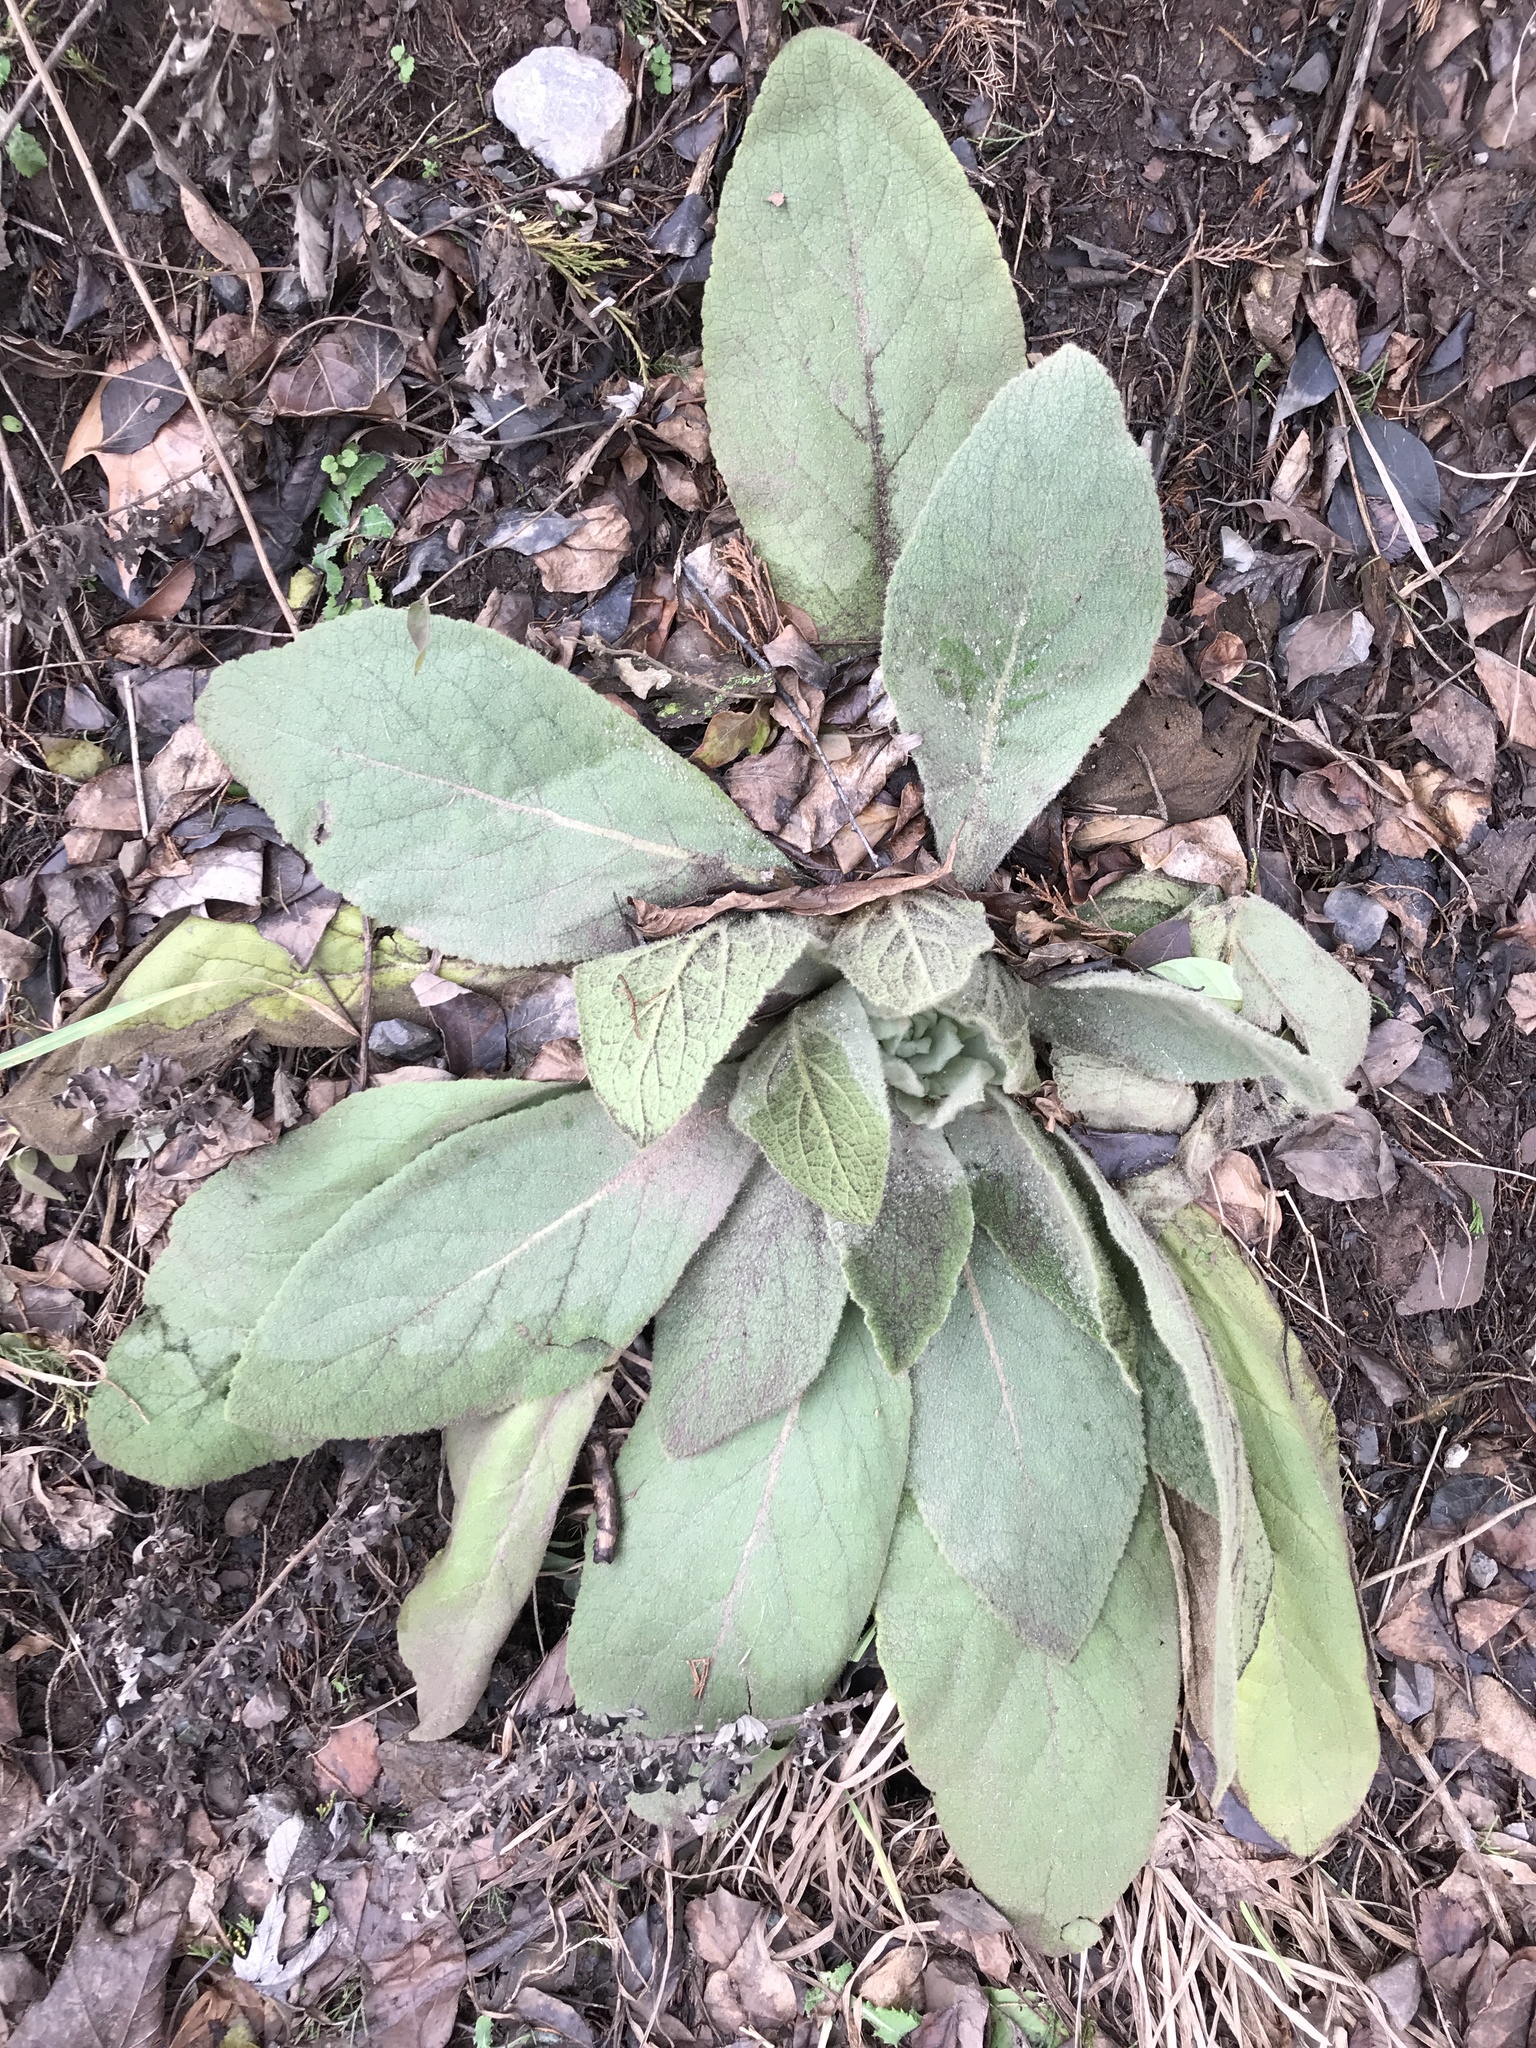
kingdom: Plantae
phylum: Tracheophyta
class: Magnoliopsida
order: Lamiales
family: Scrophulariaceae
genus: Verbascum
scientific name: Verbascum thapsus
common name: Common mullein
